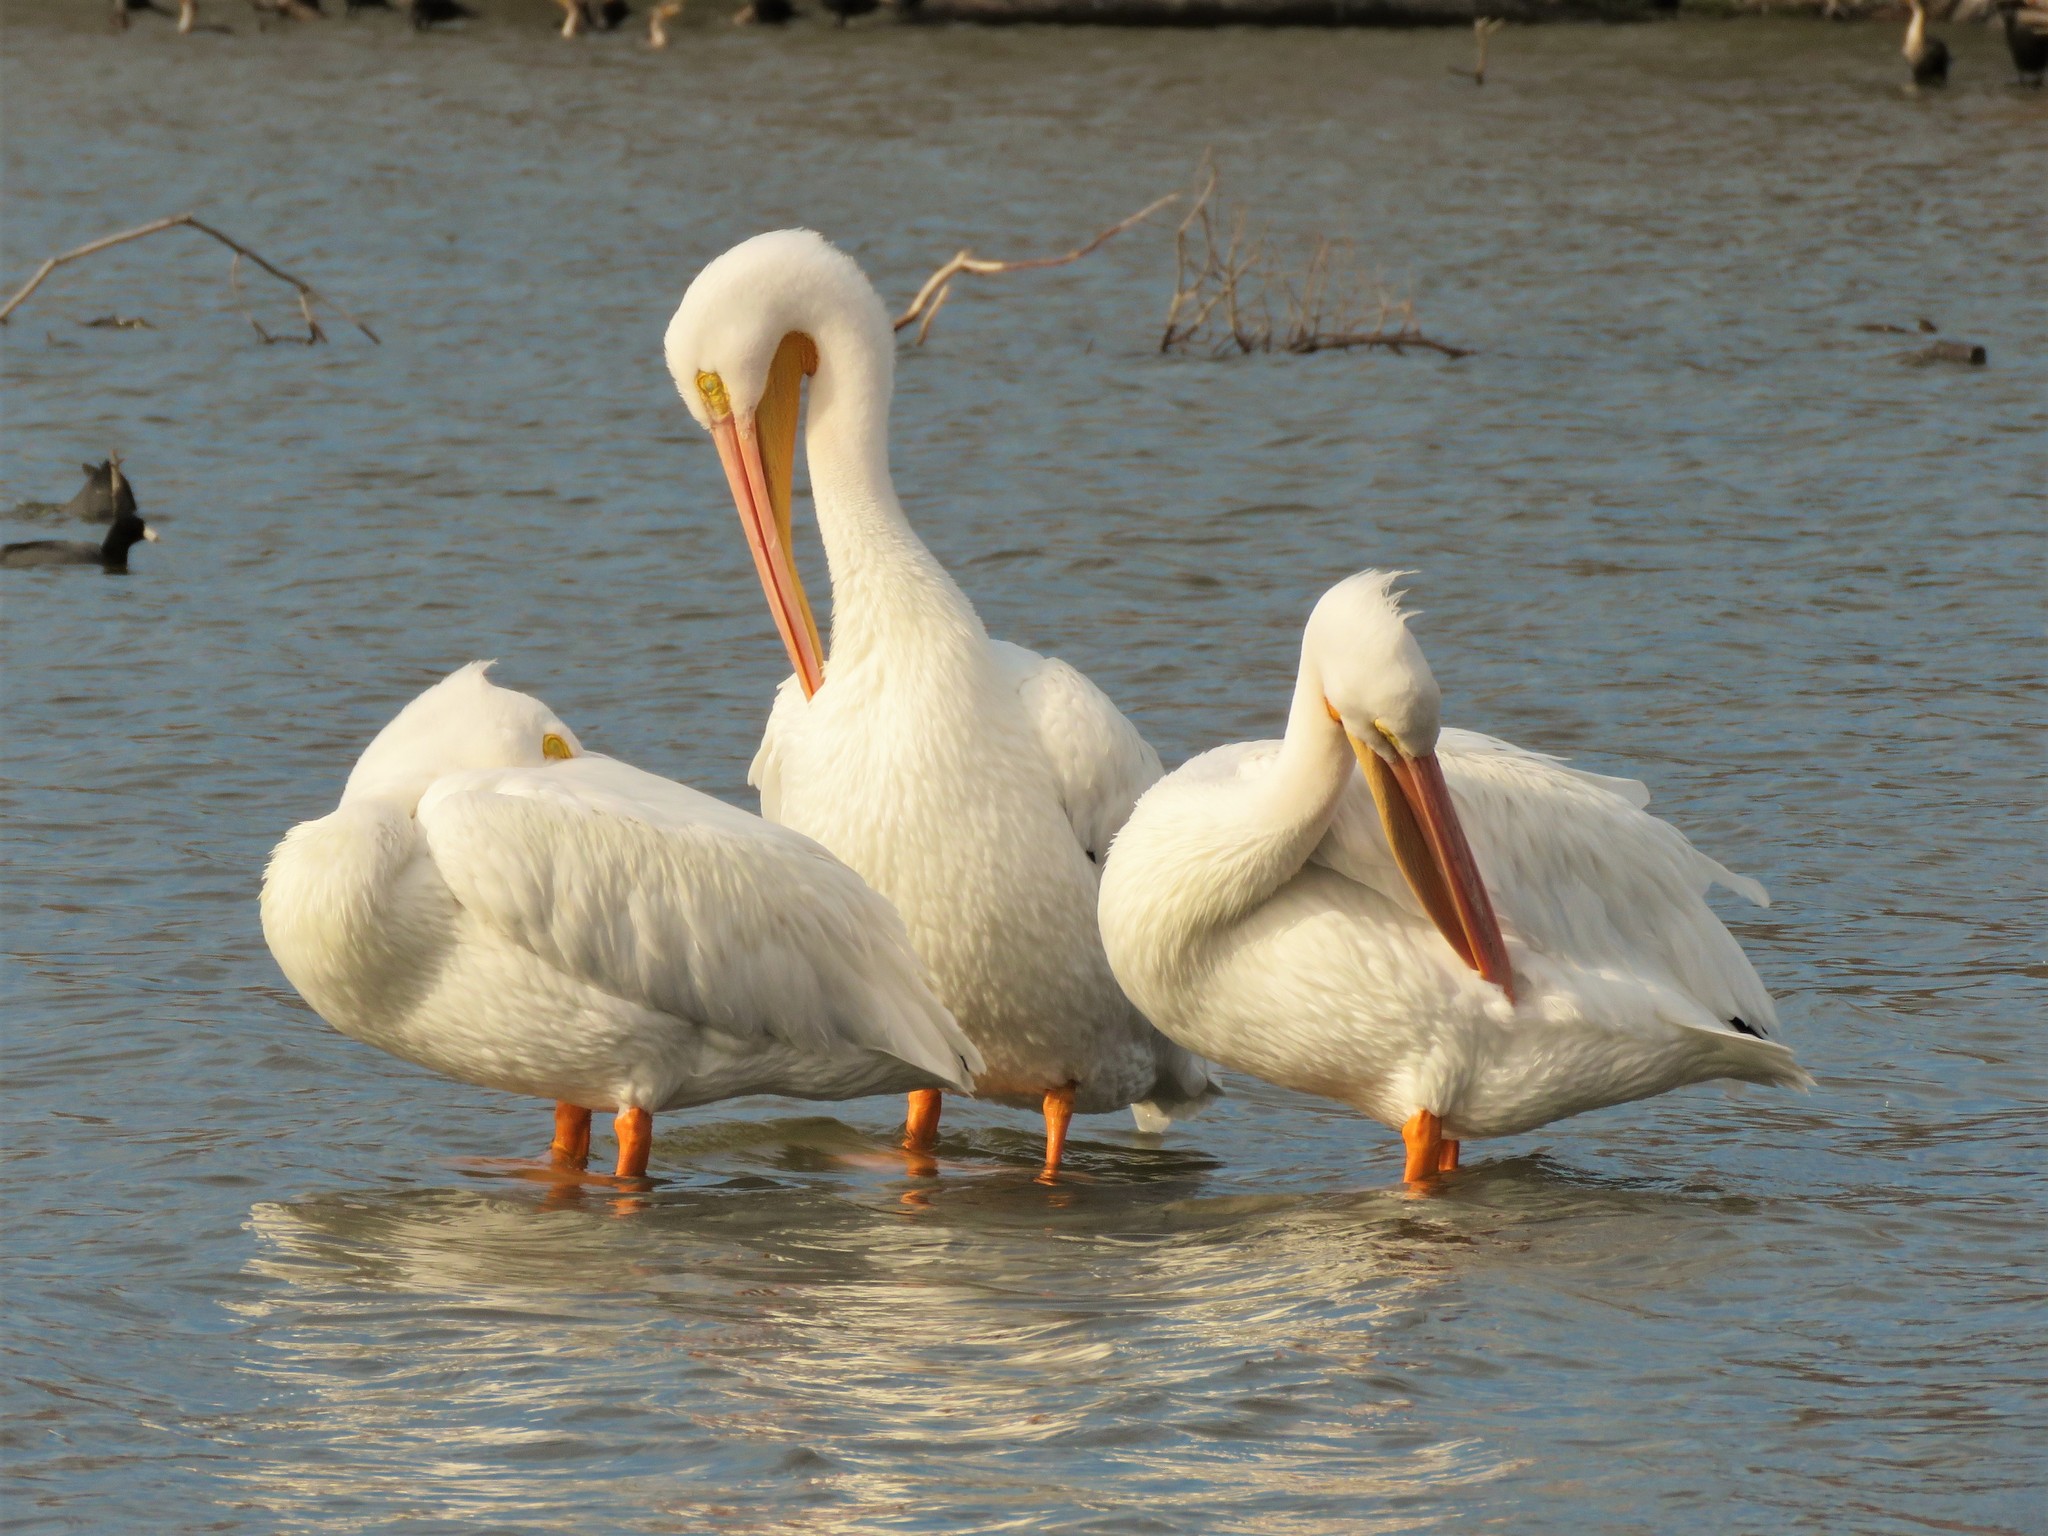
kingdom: Animalia
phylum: Chordata
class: Aves
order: Pelecaniformes
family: Pelecanidae
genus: Pelecanus
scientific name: Pelecanus erythrorhynchos
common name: American white pelican
